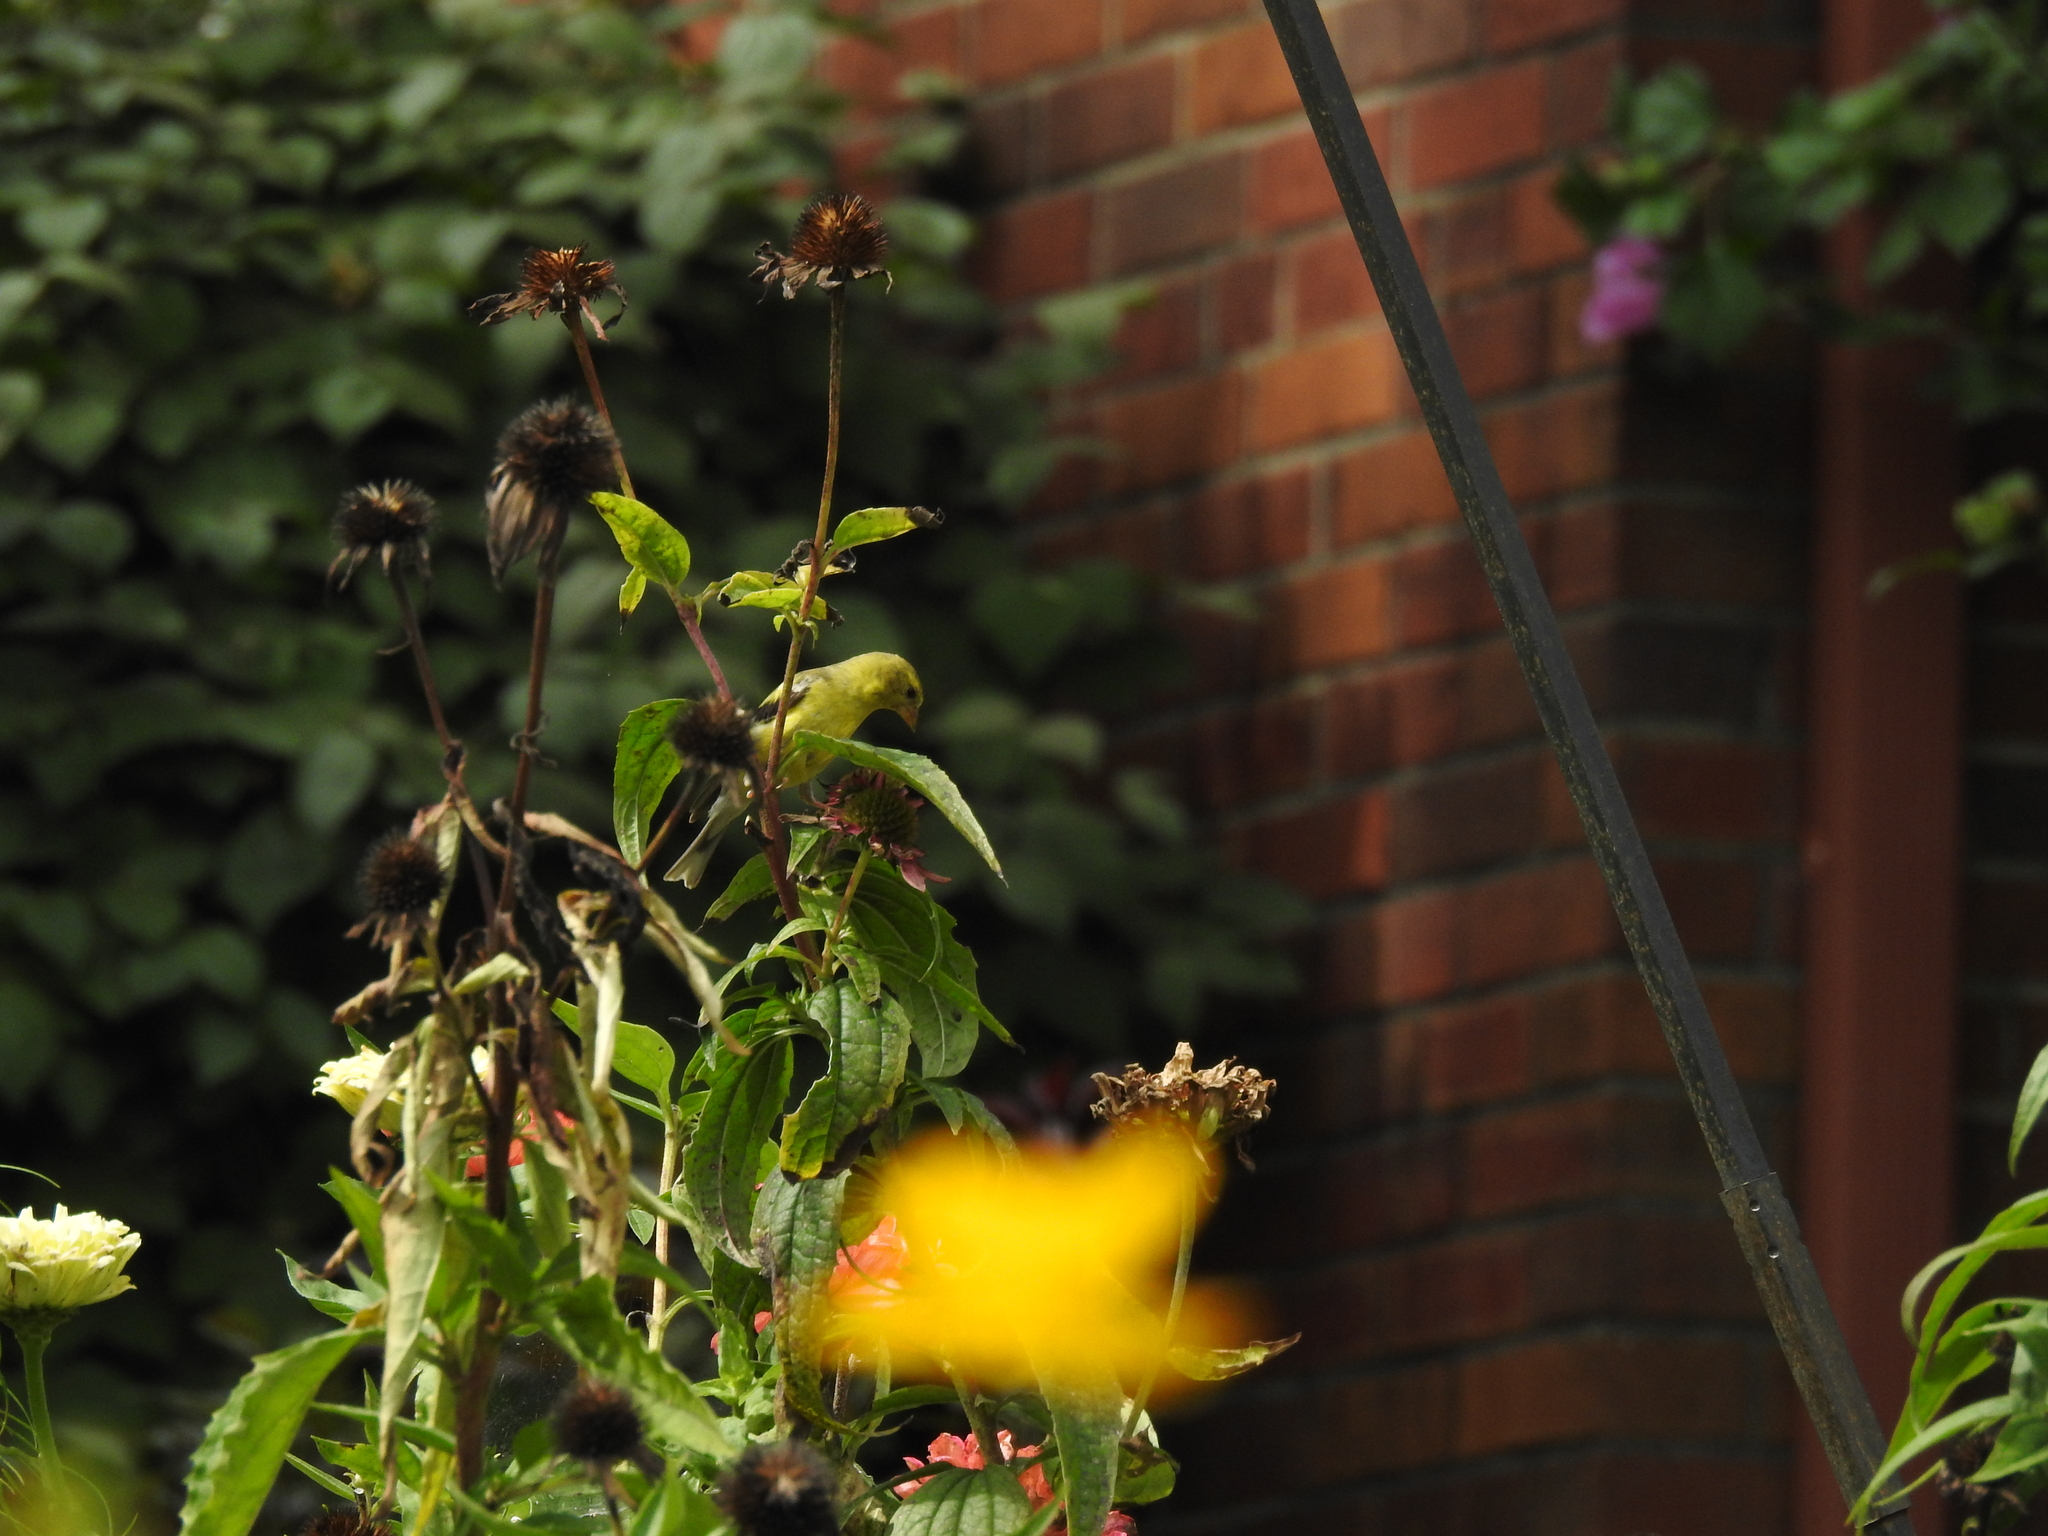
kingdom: Animalia
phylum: Chordata
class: Aves
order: Passeriformes
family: Fringillidae
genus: Spinus
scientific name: Spinus tristis
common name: American goldfinch
